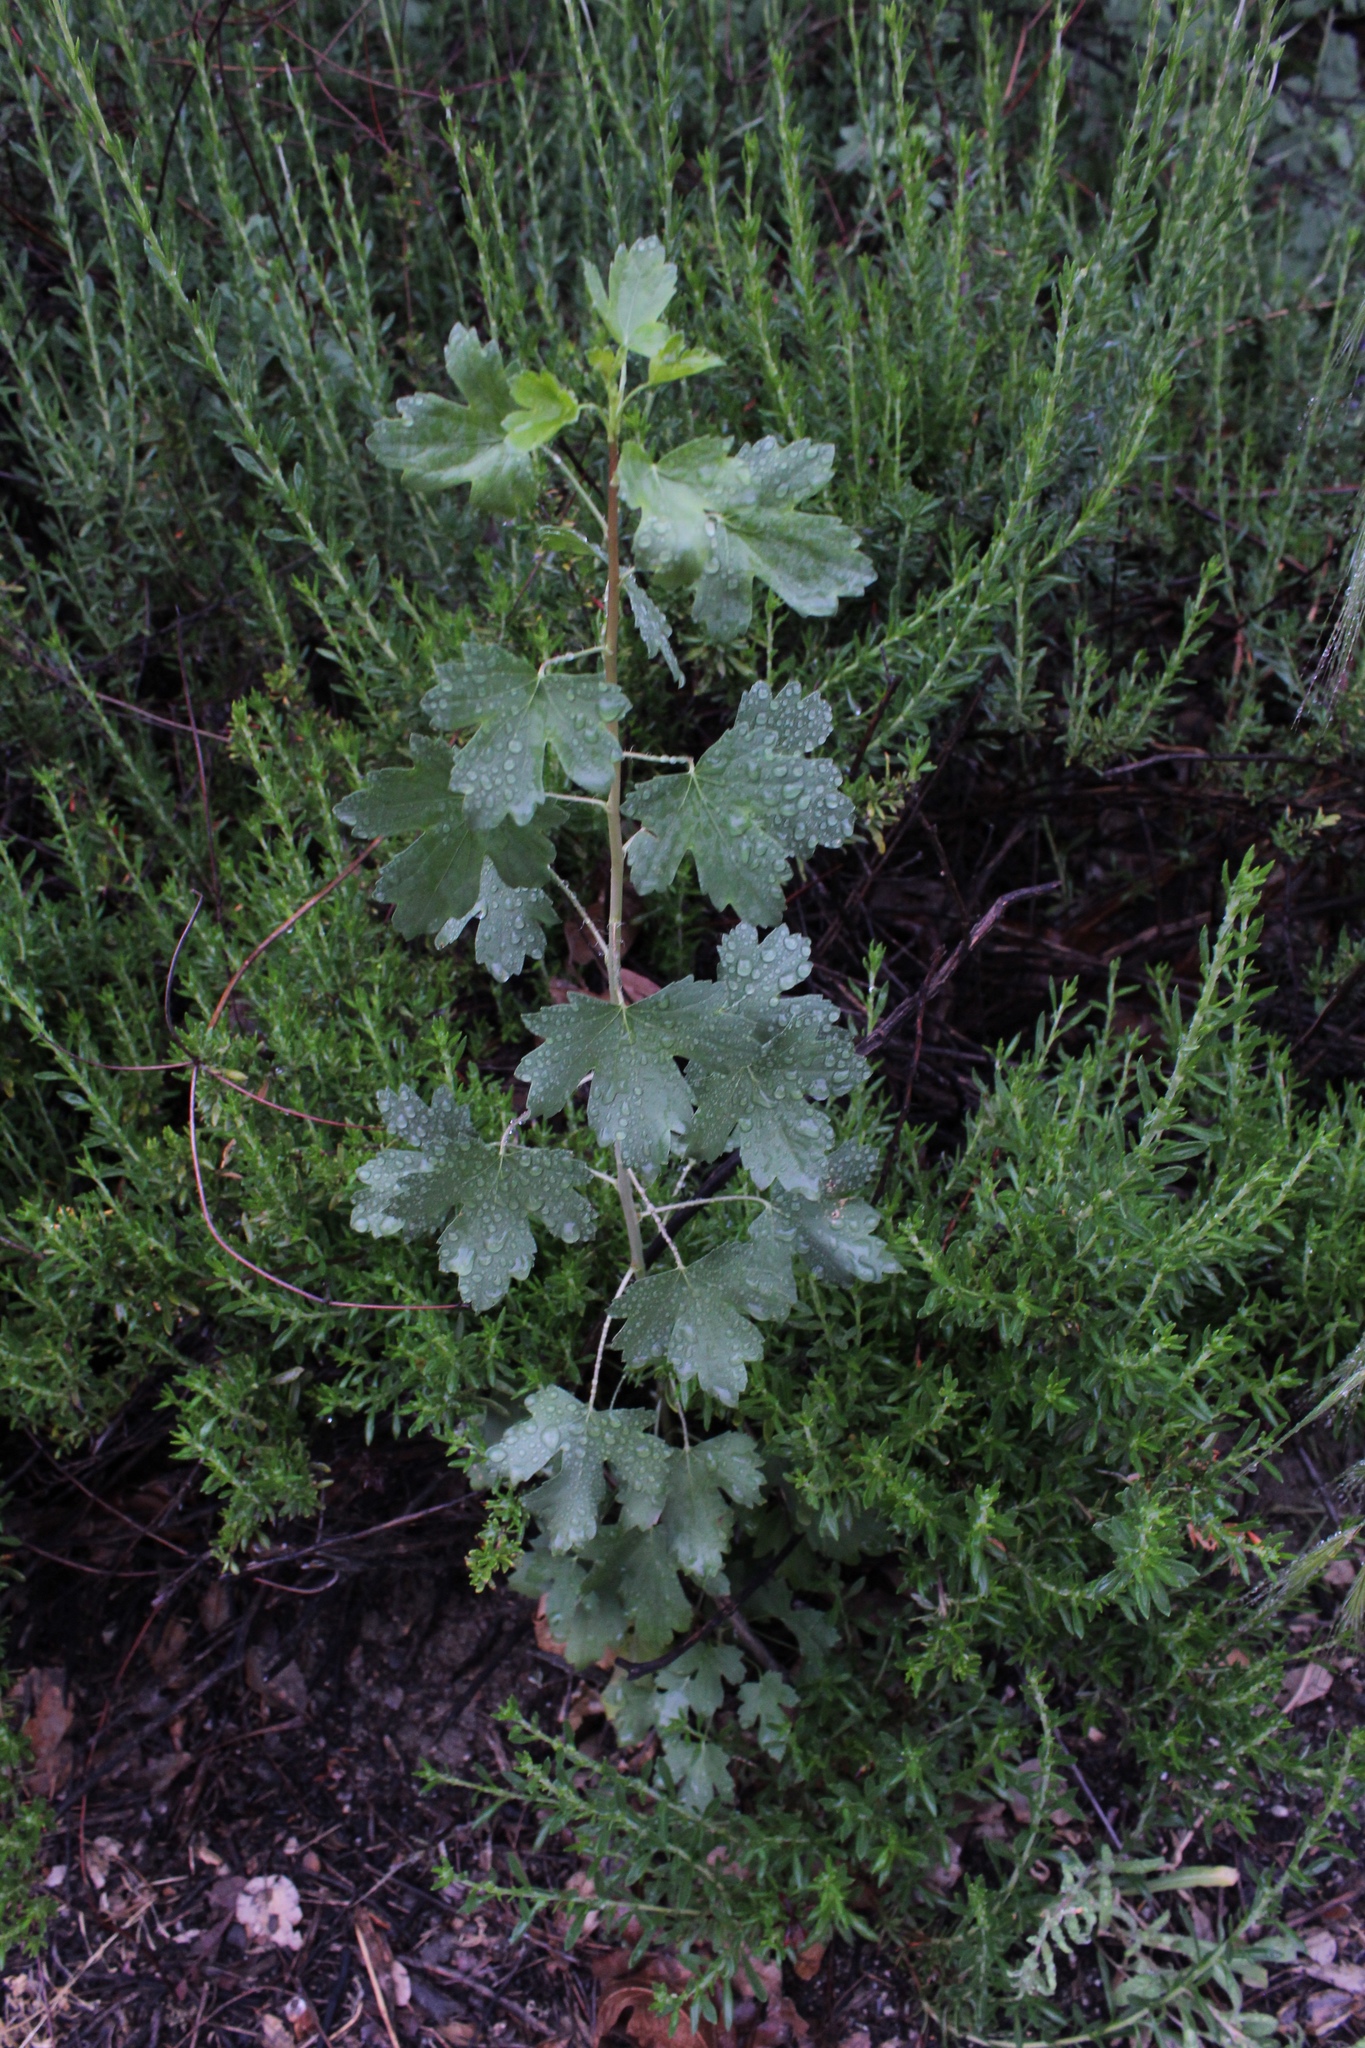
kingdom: Plantae
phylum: Tracheophyta
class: Magnoliopsida
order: Saxifragales
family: Grossulariaceae
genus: Ribes
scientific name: Ribes aureum
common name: Golden currant
